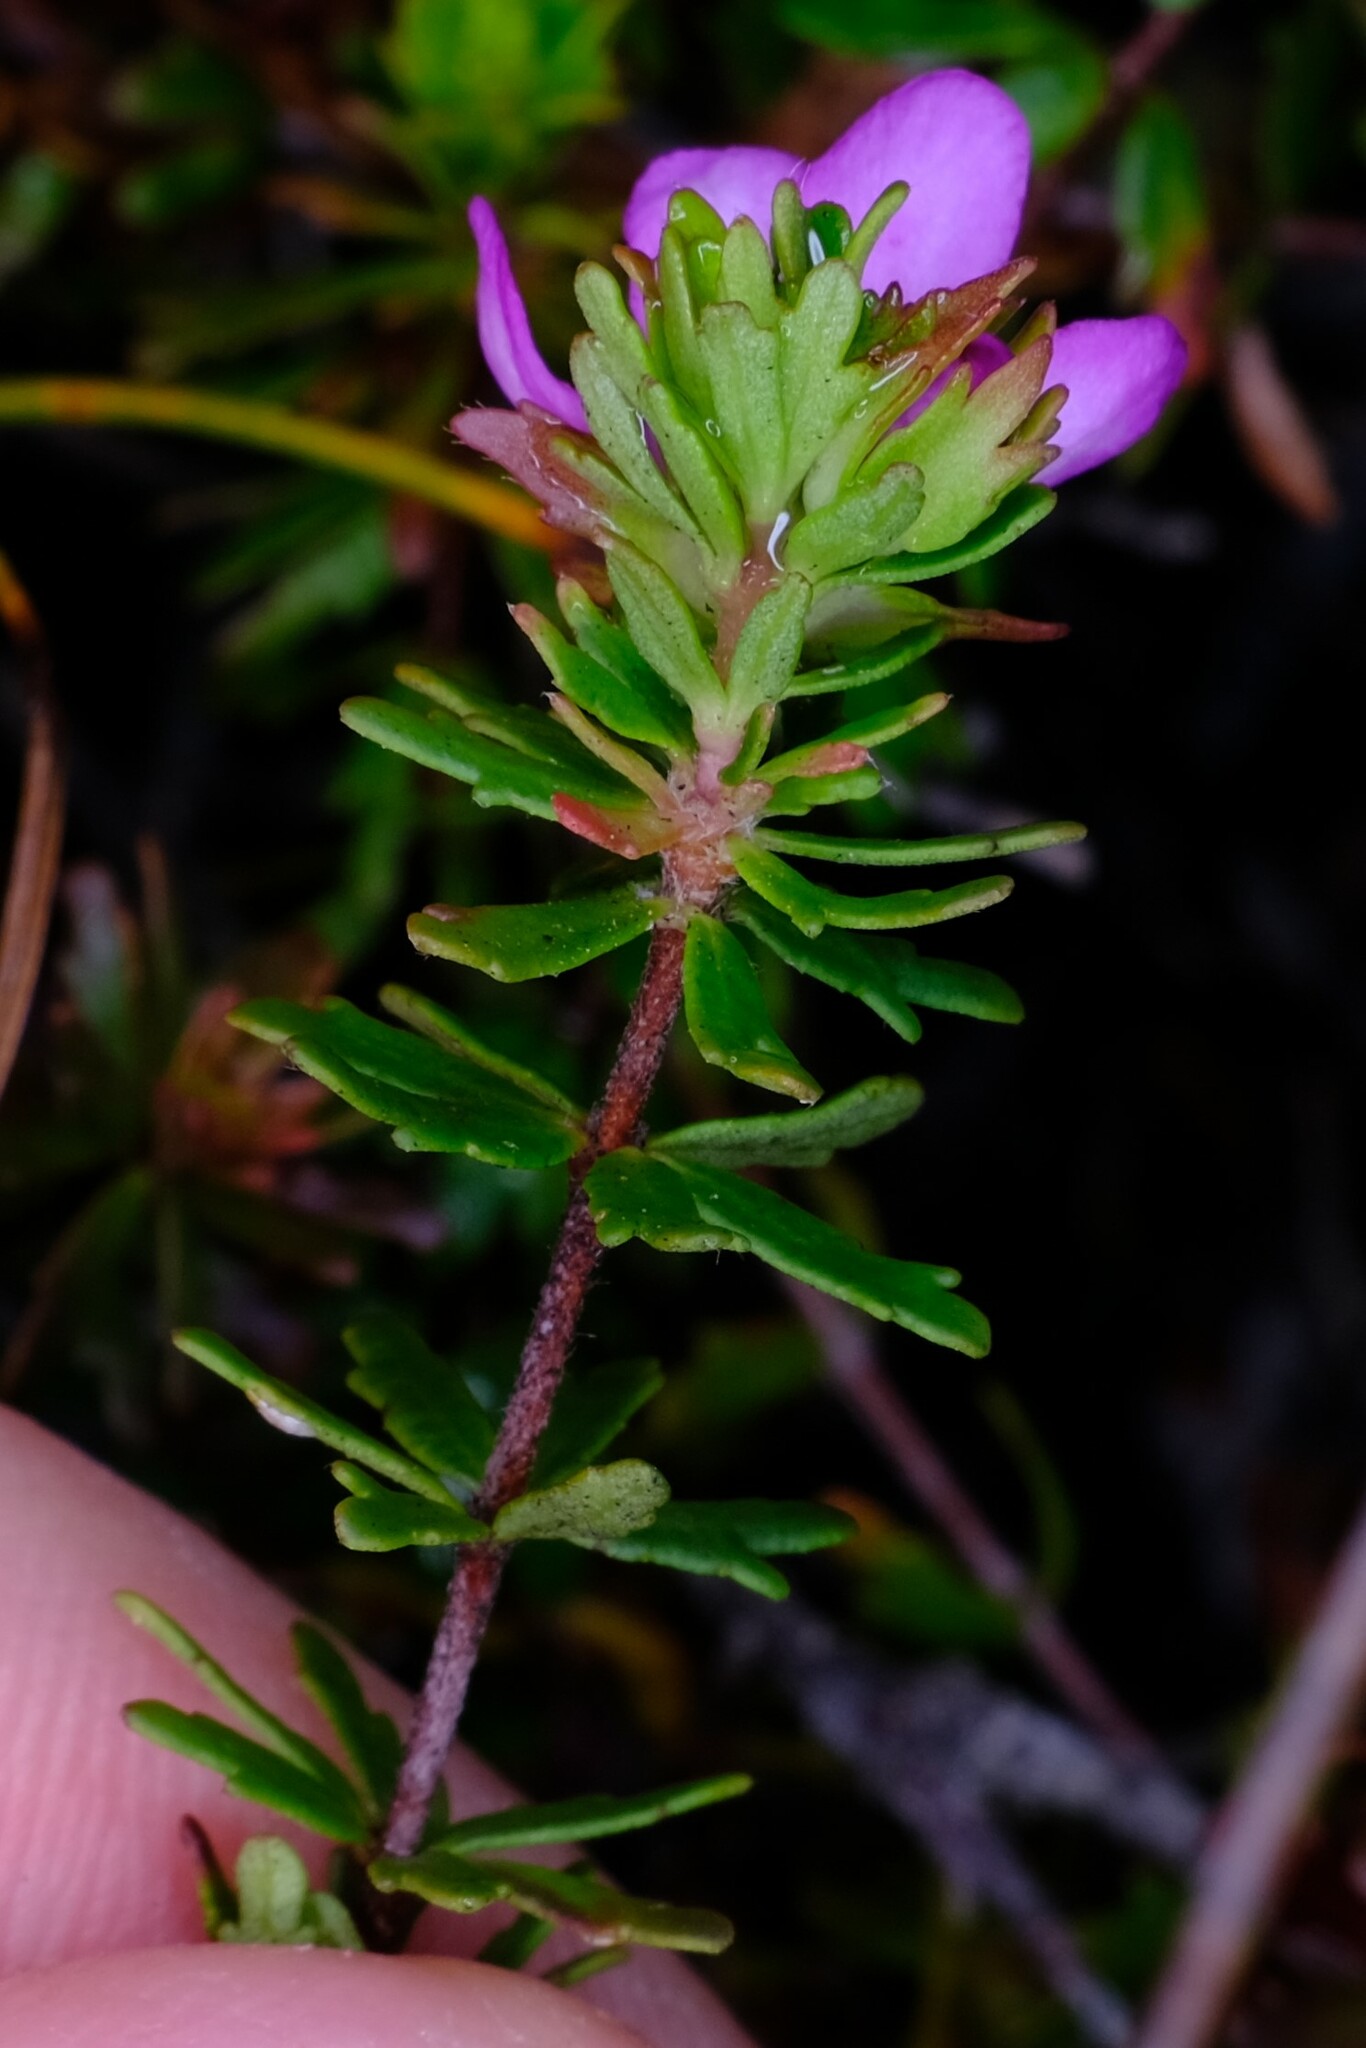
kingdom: Plantae
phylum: Tracheophyta
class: Magnoliopsida
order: Oxalidales
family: Cunoniaceae
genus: Bauera
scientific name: Bauera capitata
